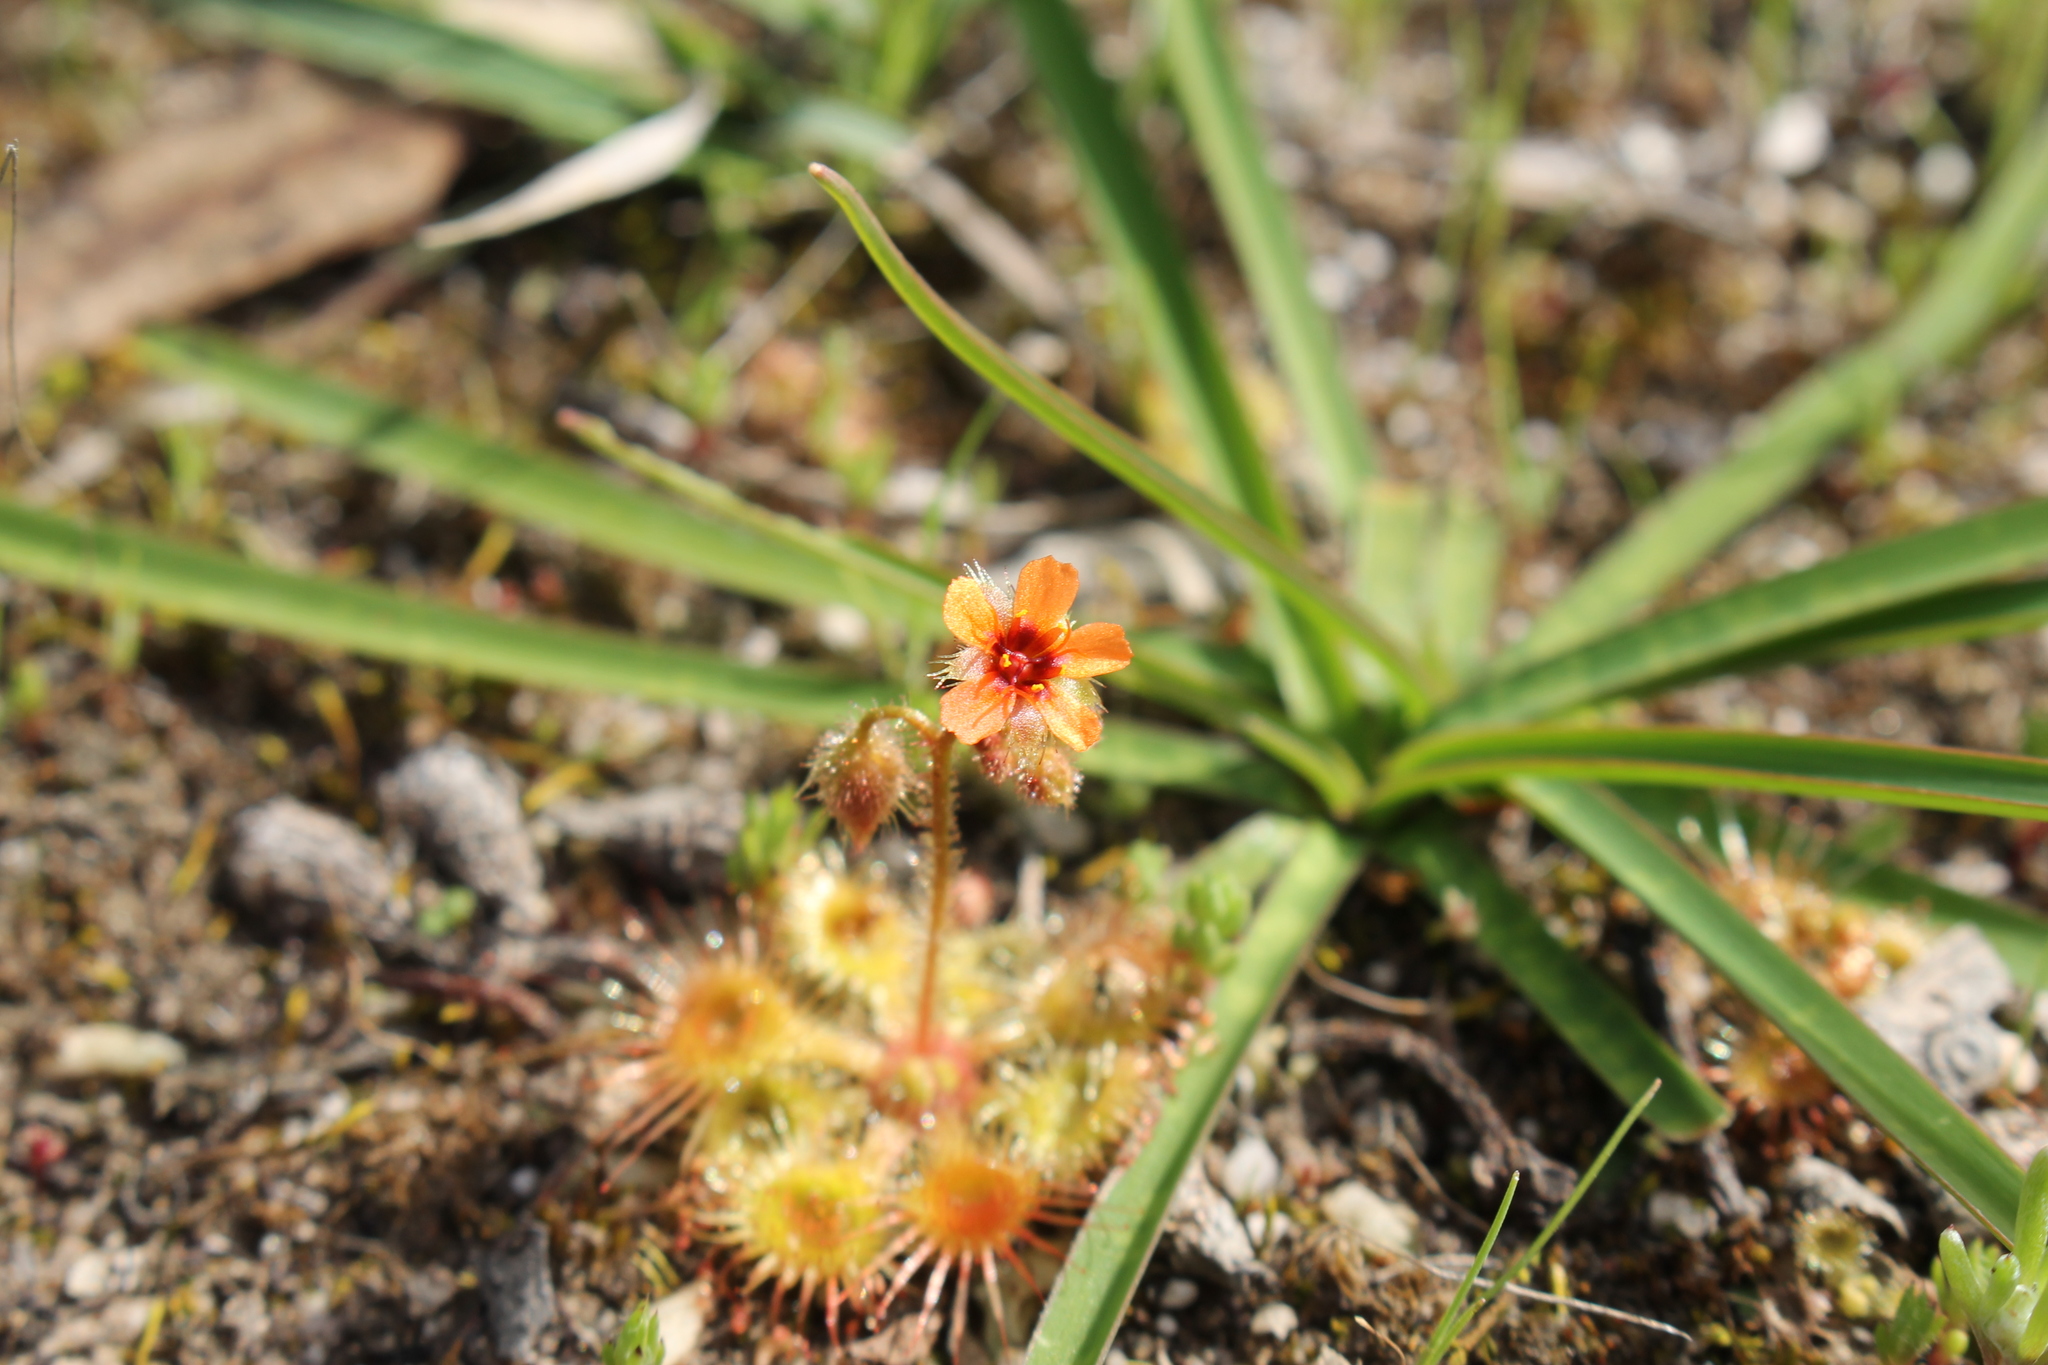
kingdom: Plantae
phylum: Tracheophyta
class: Magnoliopsida
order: Caryophyllales
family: Droseraceae
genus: Drosera
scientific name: Drosera glanduligera
